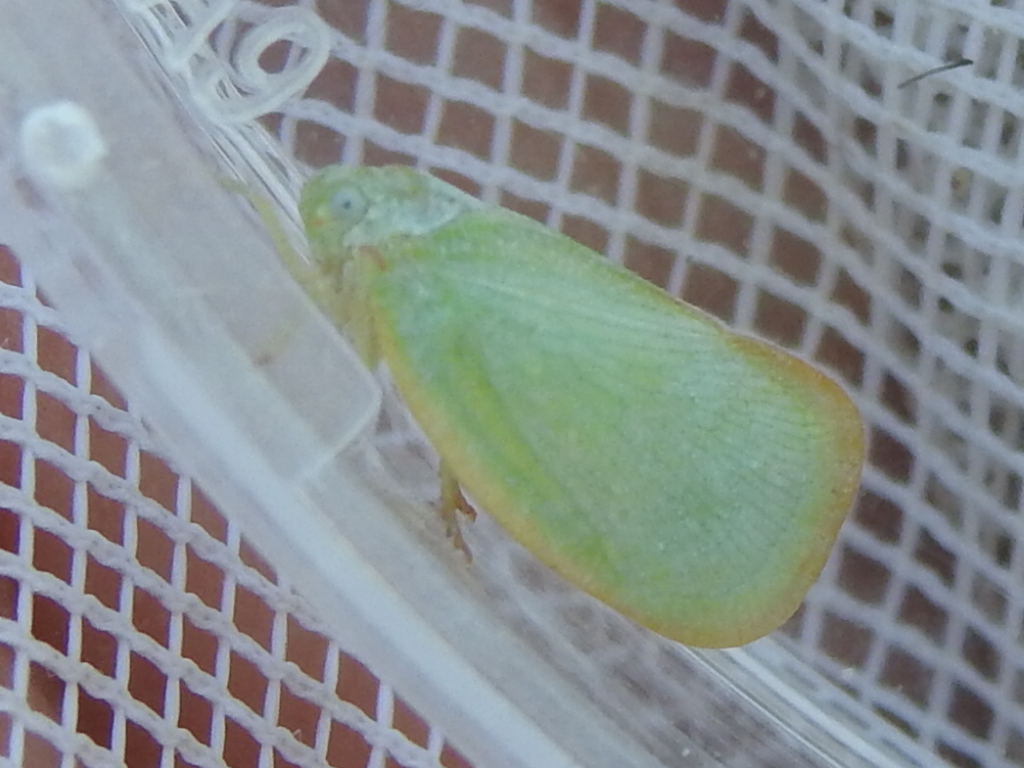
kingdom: Animalia
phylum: Arthropoda
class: Insecta
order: Hemiptera
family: Flatidae
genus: Ormenoides
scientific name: Ormenoides venusta
